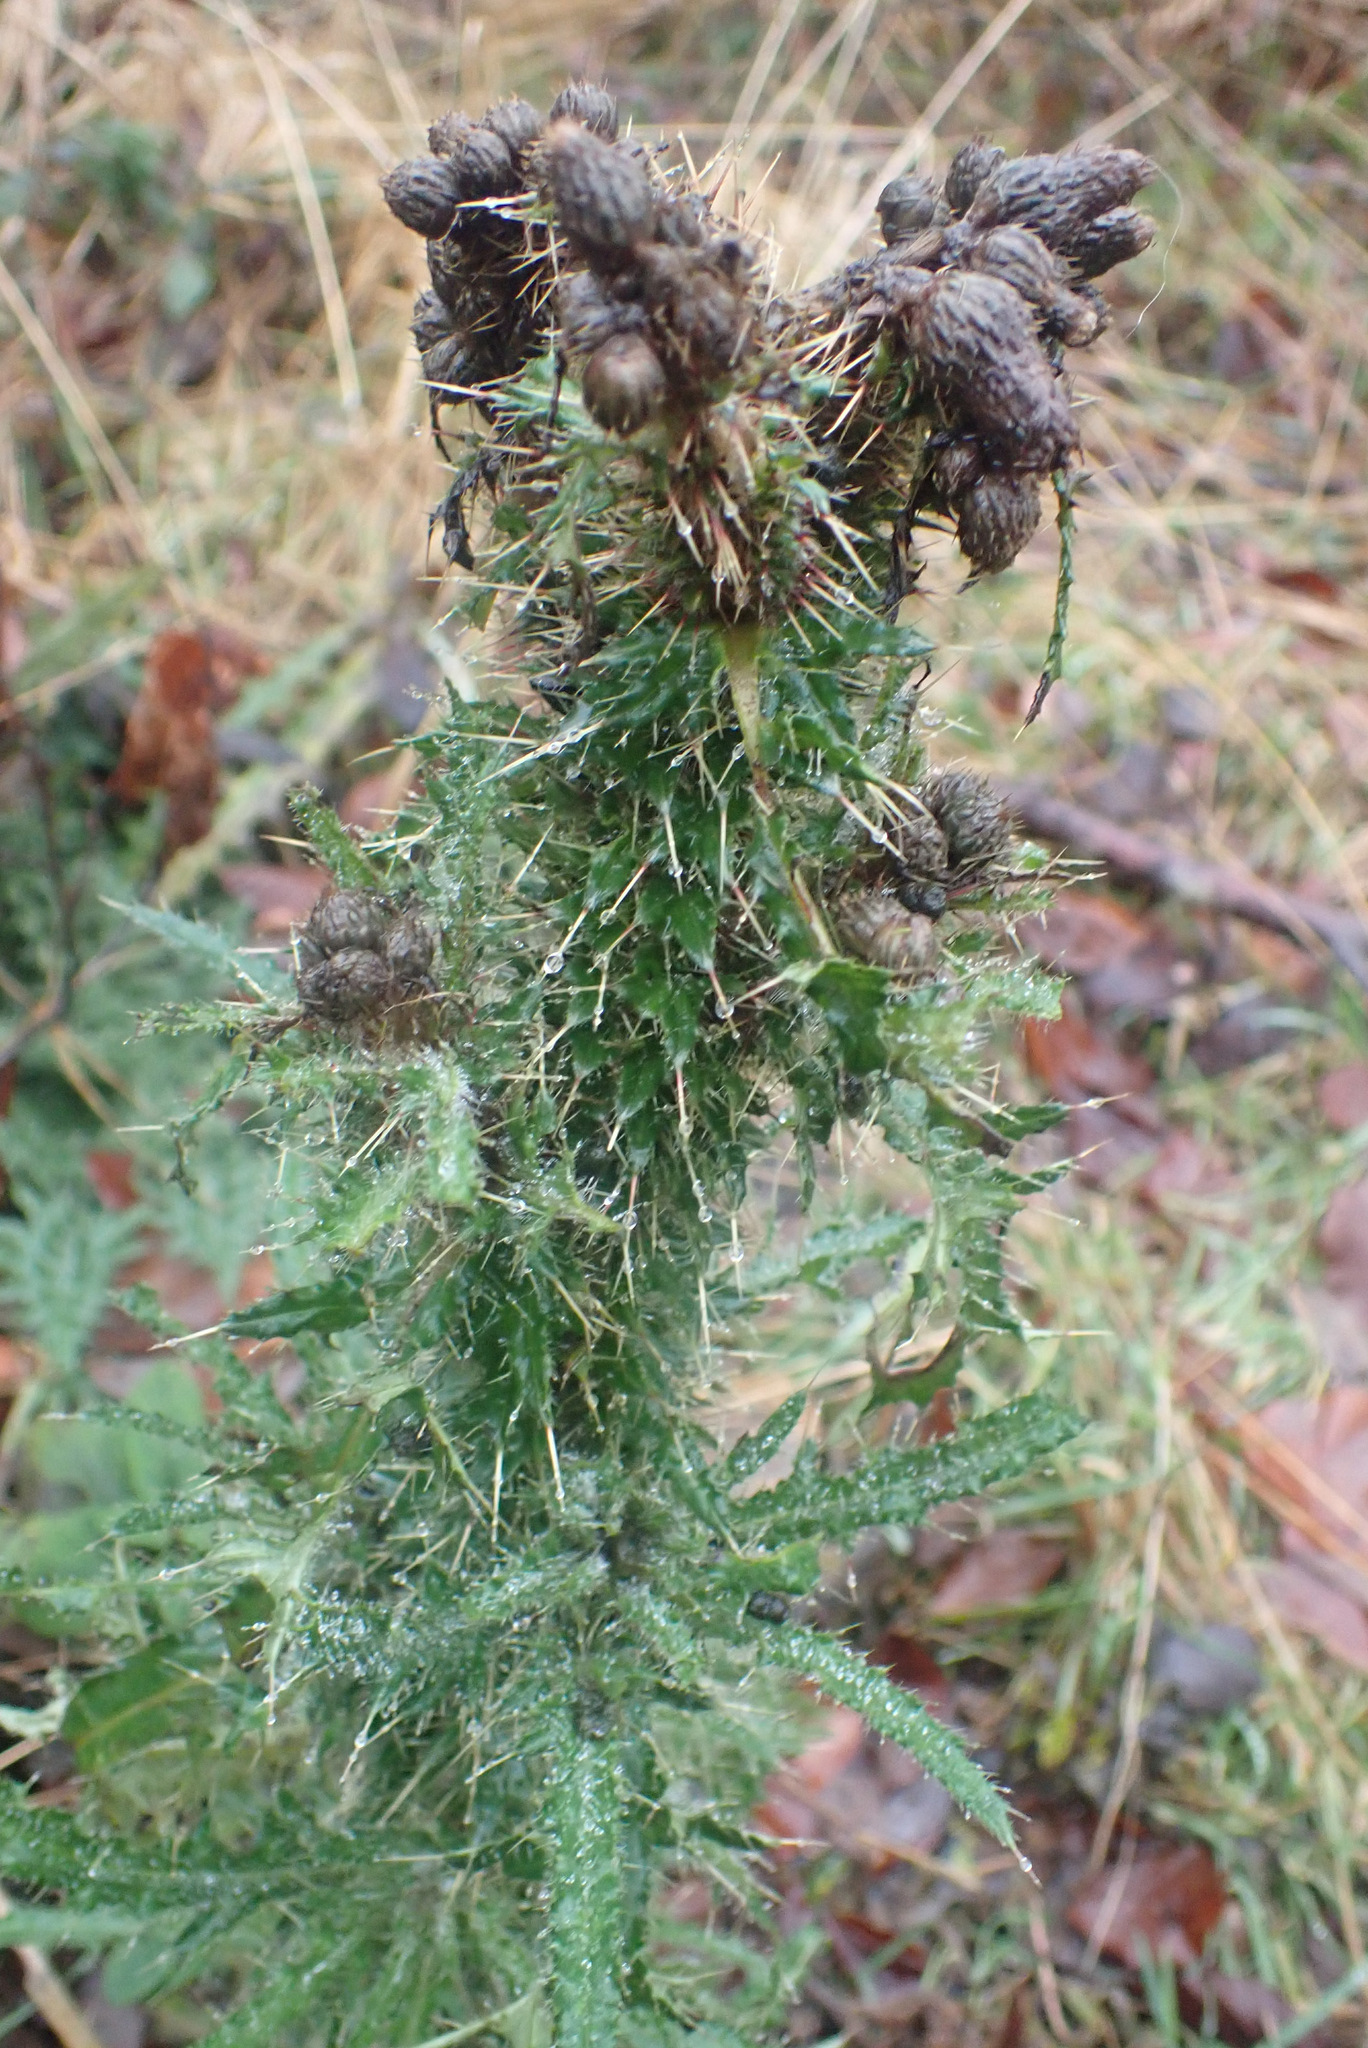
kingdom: Plantae
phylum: Tracheophyta
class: Magnoliopsida
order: Asterales
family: Asteraceae
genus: Cirsium
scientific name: Cirsium palustre
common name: Marsh thistle
